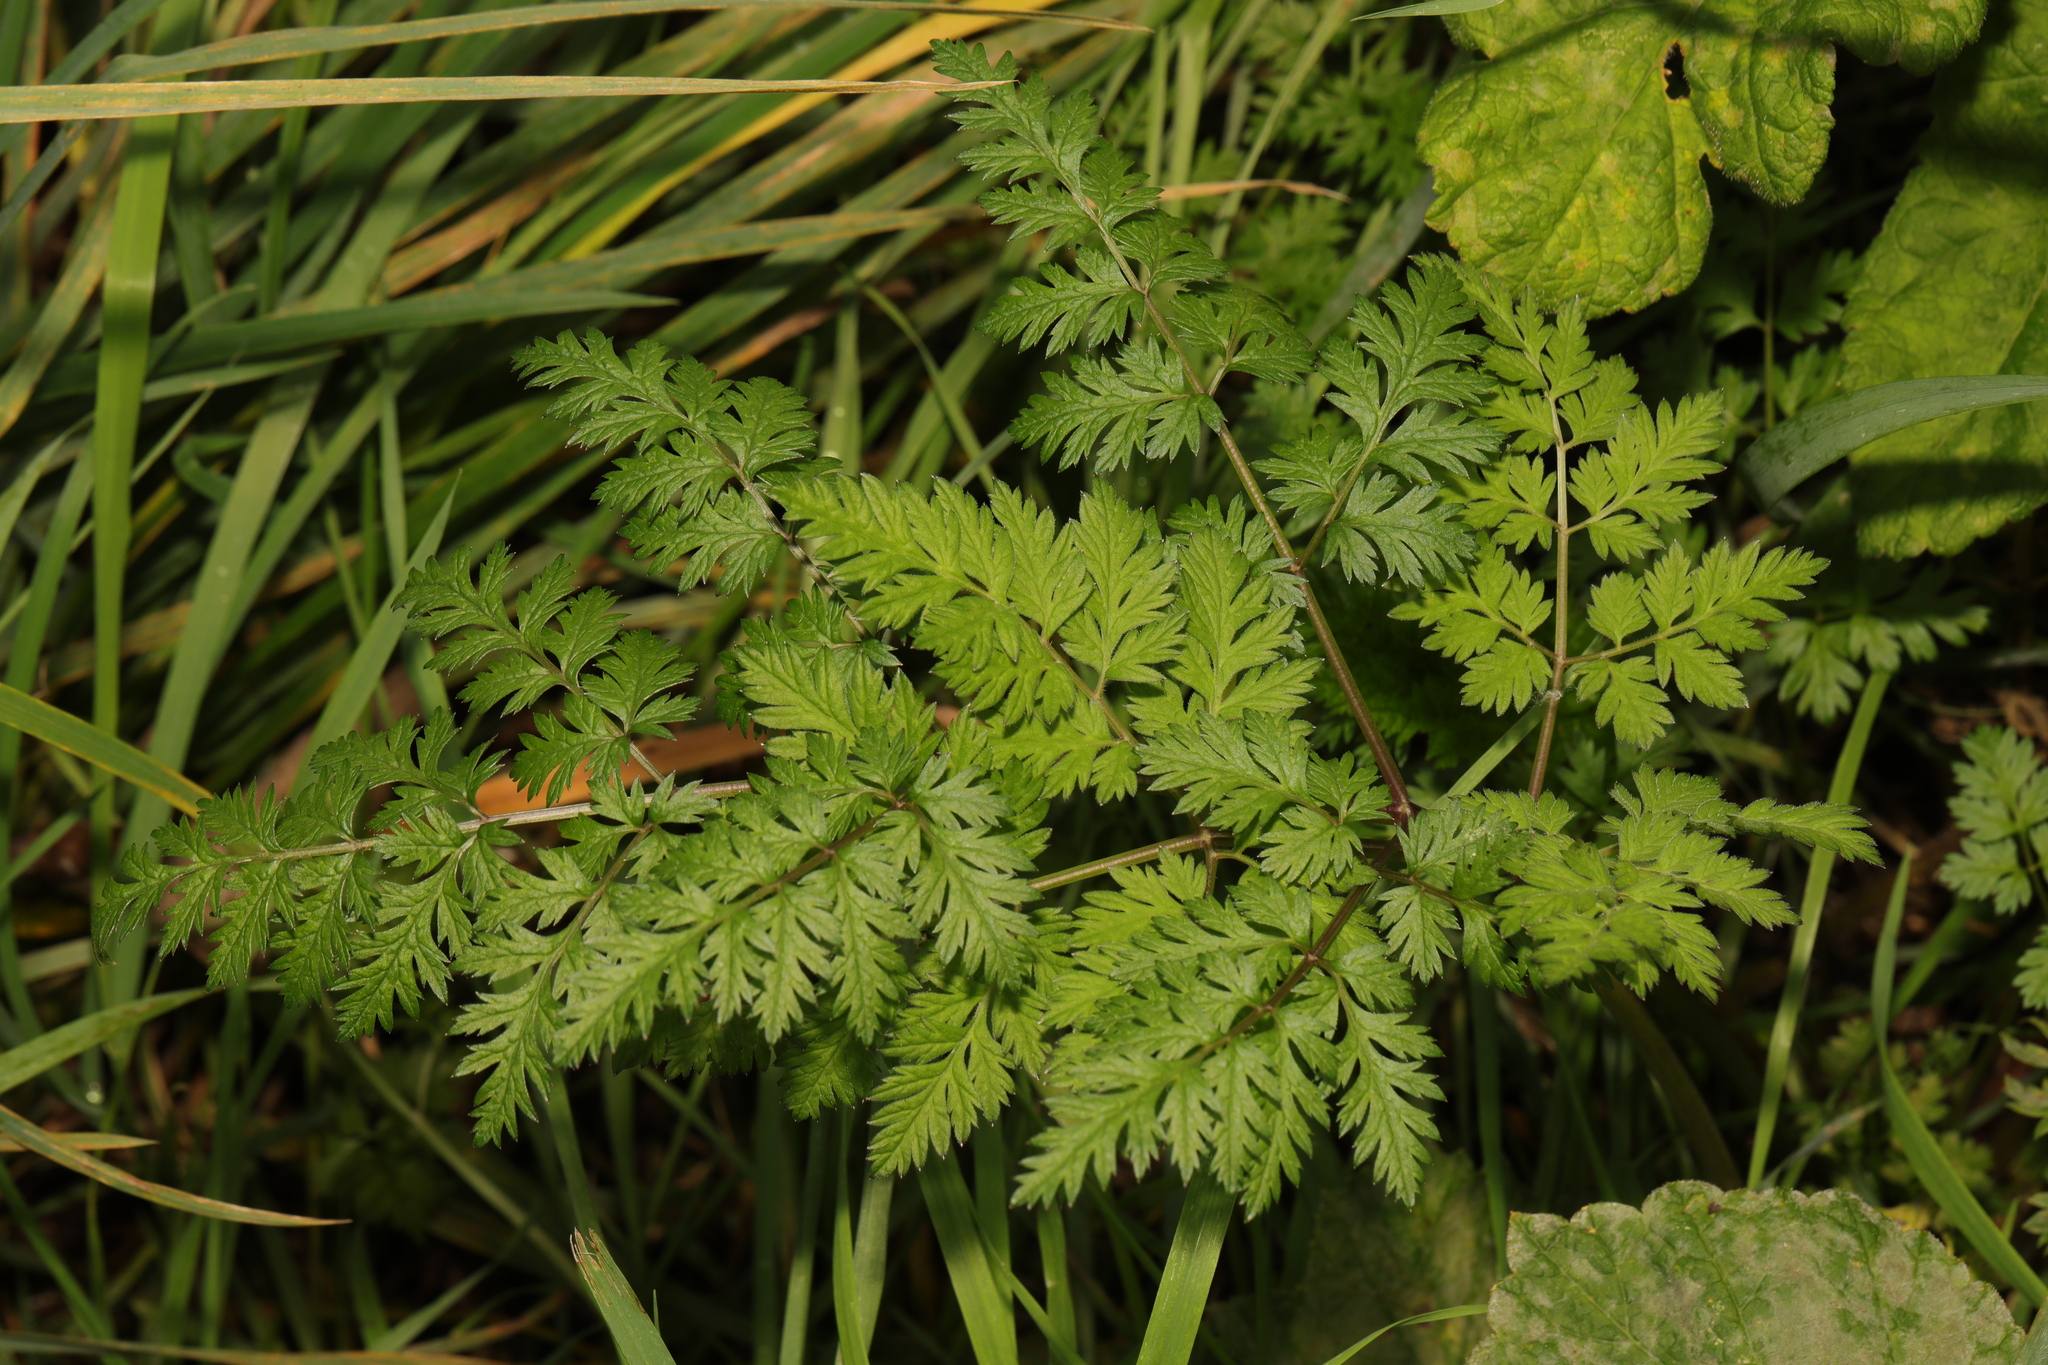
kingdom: Plantae
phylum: Tracheophyta
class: Magnoliopsida
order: Apiales
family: Apiaceae
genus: Anthriscus
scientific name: Anthriscus sylvestris
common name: Cow parsley
